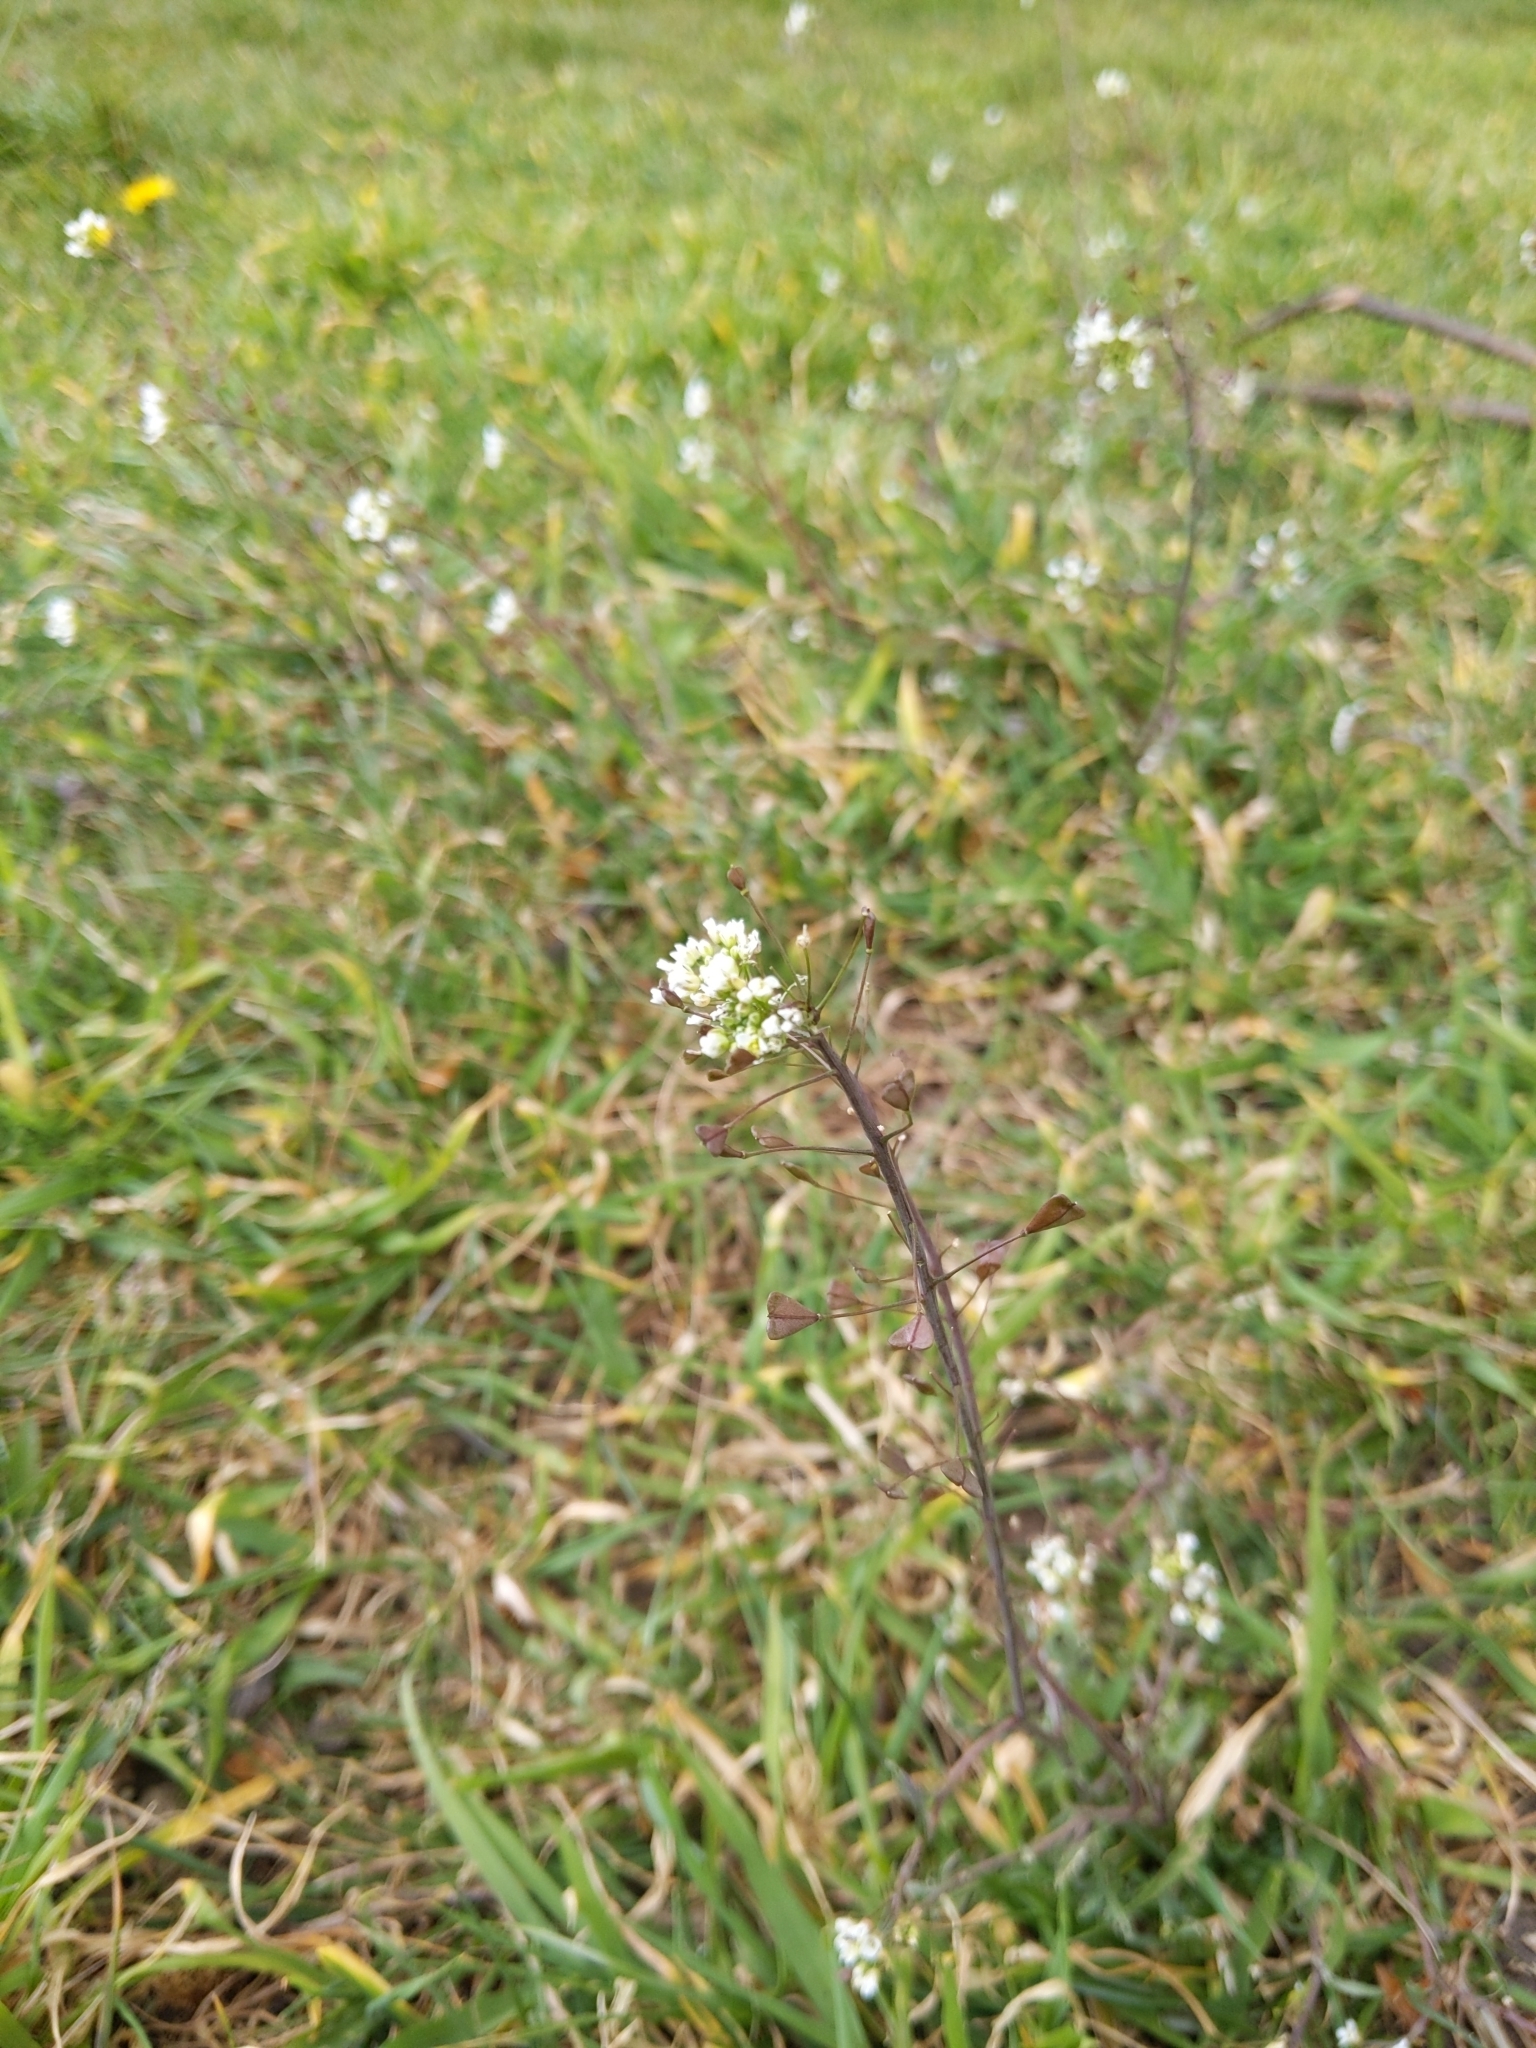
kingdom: Plantae
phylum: Tracheophyta
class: Magnoliopsida
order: Brassicales
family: Brassicaceae
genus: Capsella
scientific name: Capsella bursa-pastoris
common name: Shepherd's purse
